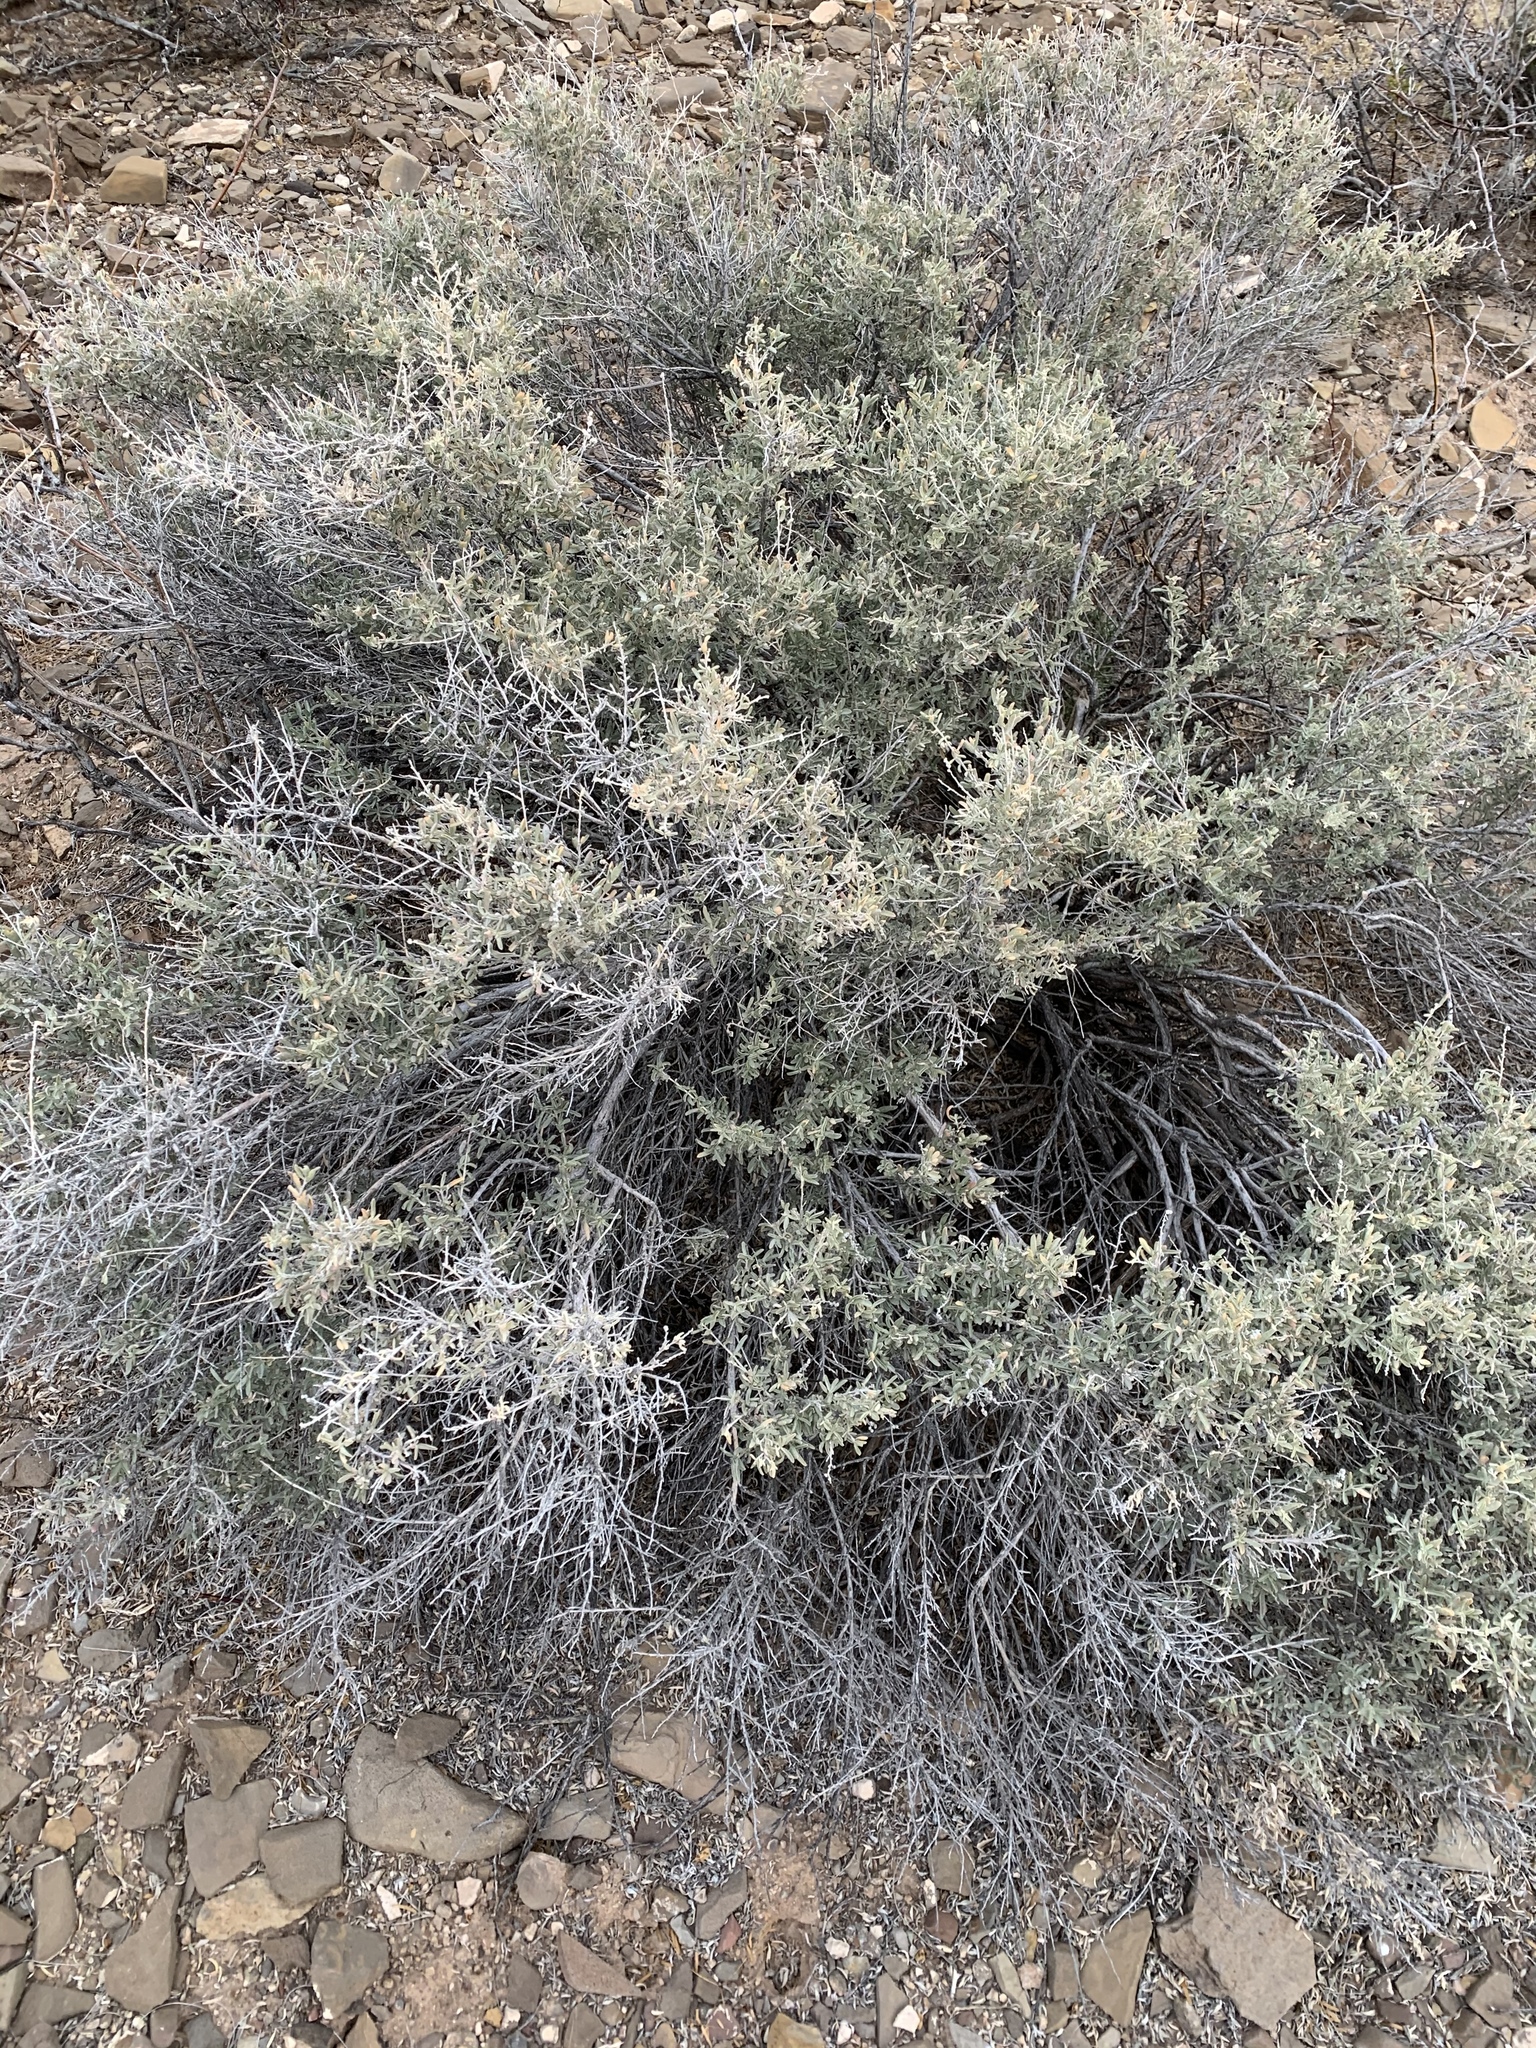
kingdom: Plantae
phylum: Tracheophyta
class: Magnoliopsida
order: Caryophyllales
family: Amaranthaceae
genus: Atriplex
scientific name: Atriplex canescens
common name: Four-wing saltbush
